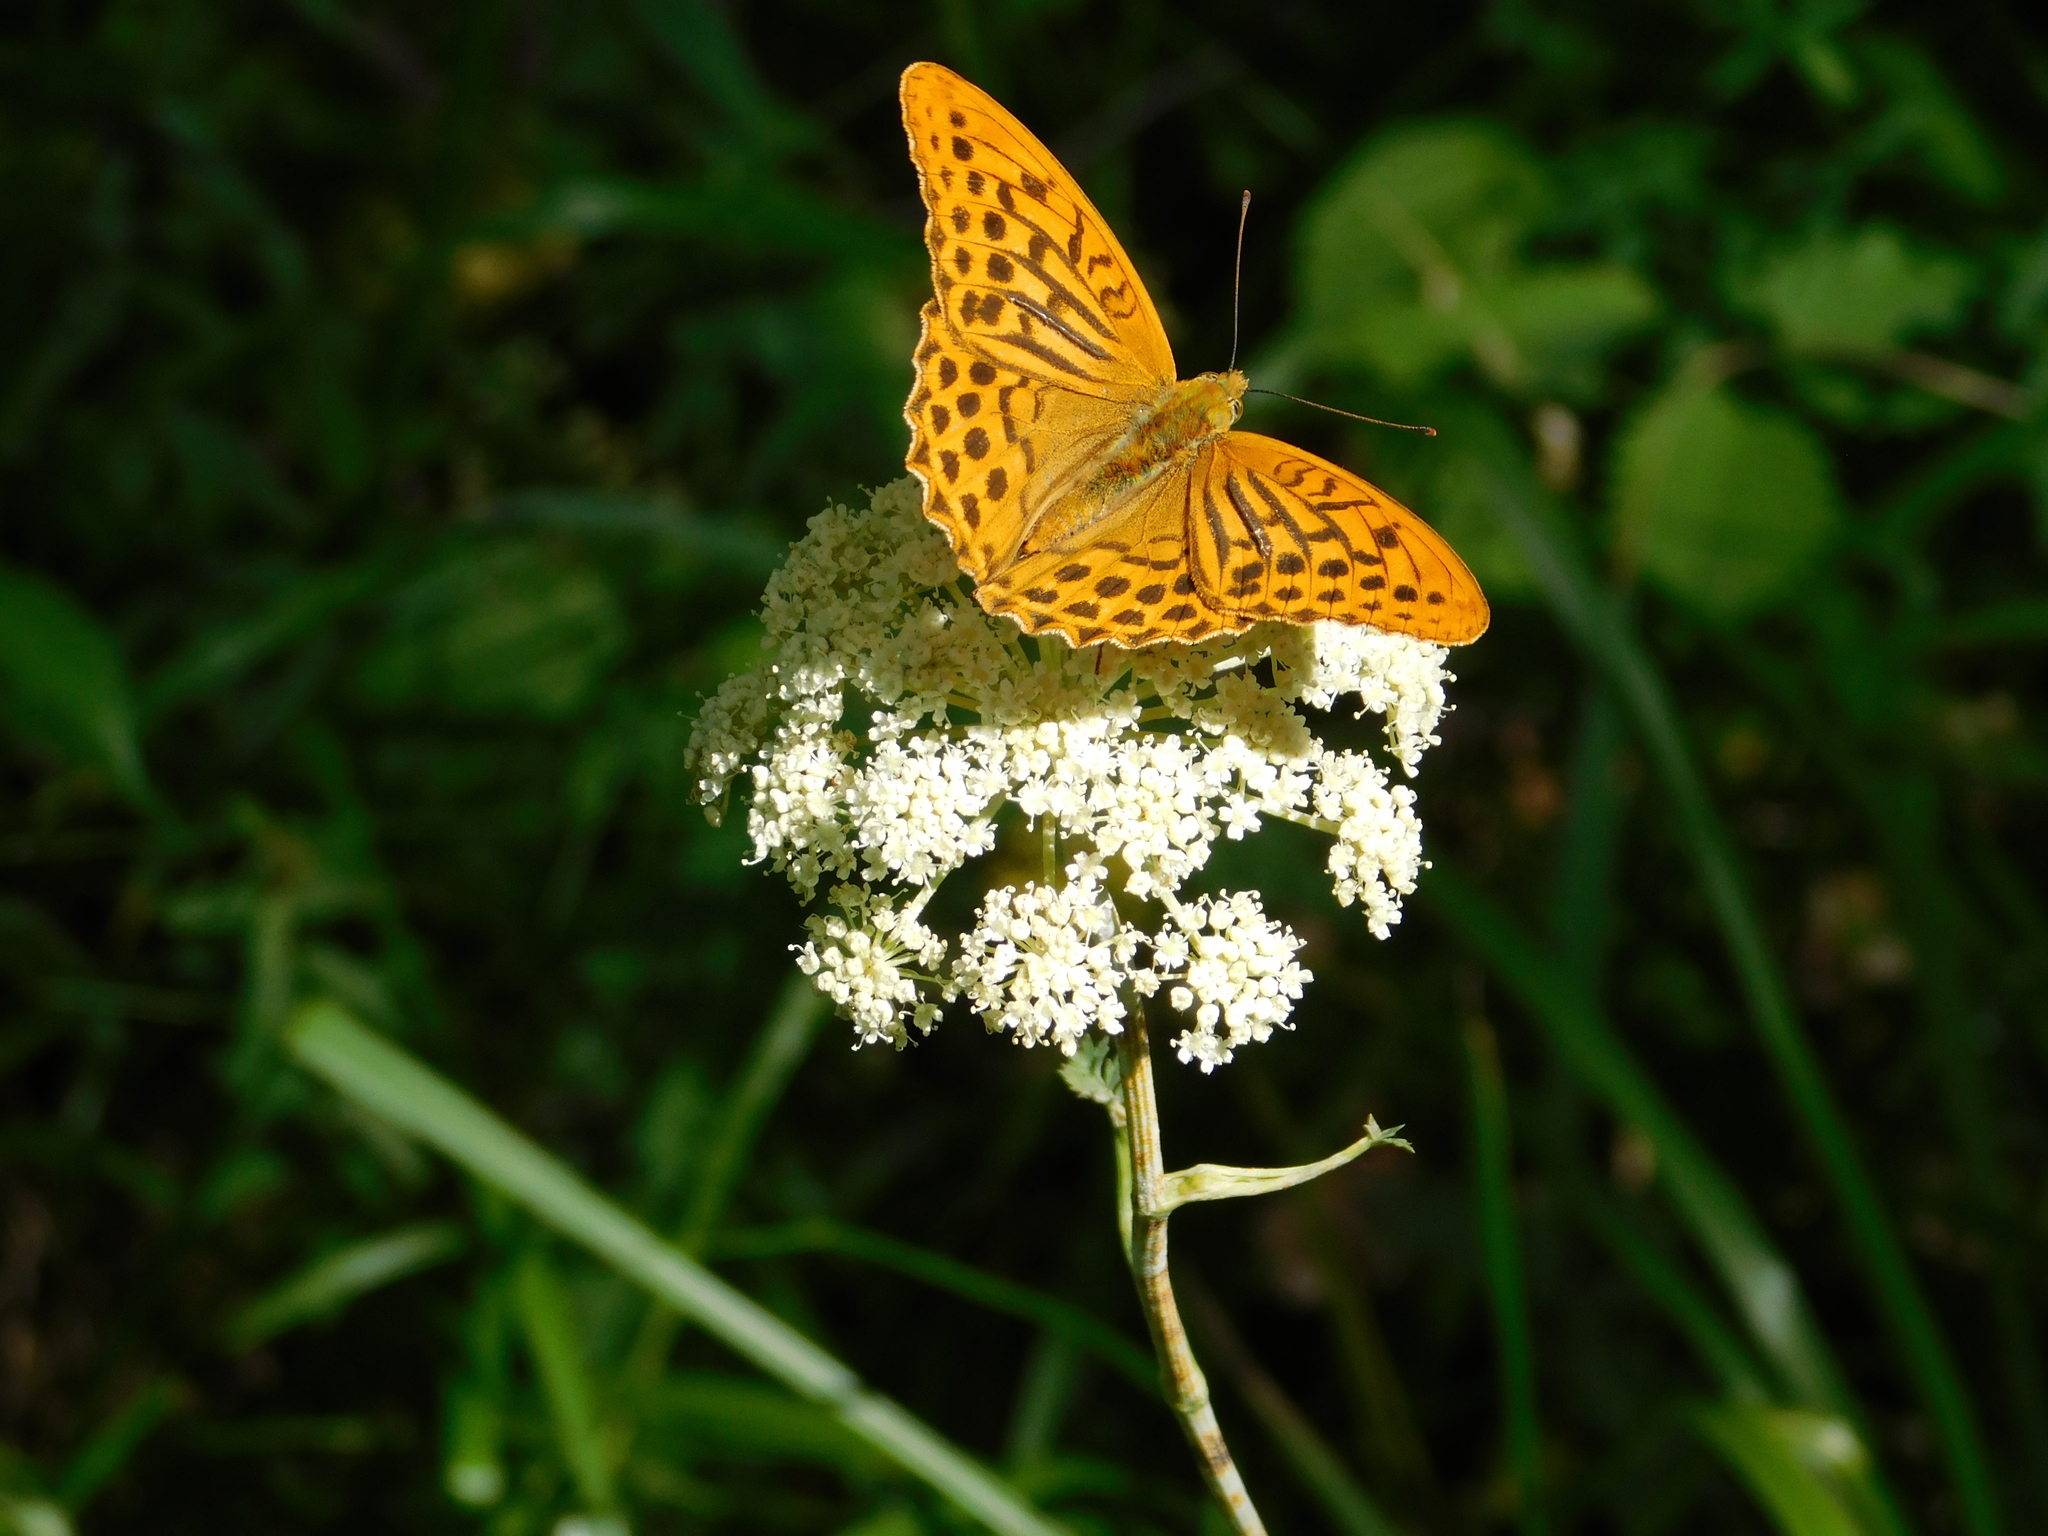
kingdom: Animalia
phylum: Arthropoda
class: Insecta
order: Lepidoptera
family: Nymphalidae
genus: Argynnis
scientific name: Argynnis paphia
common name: Silver-washed fritillary
